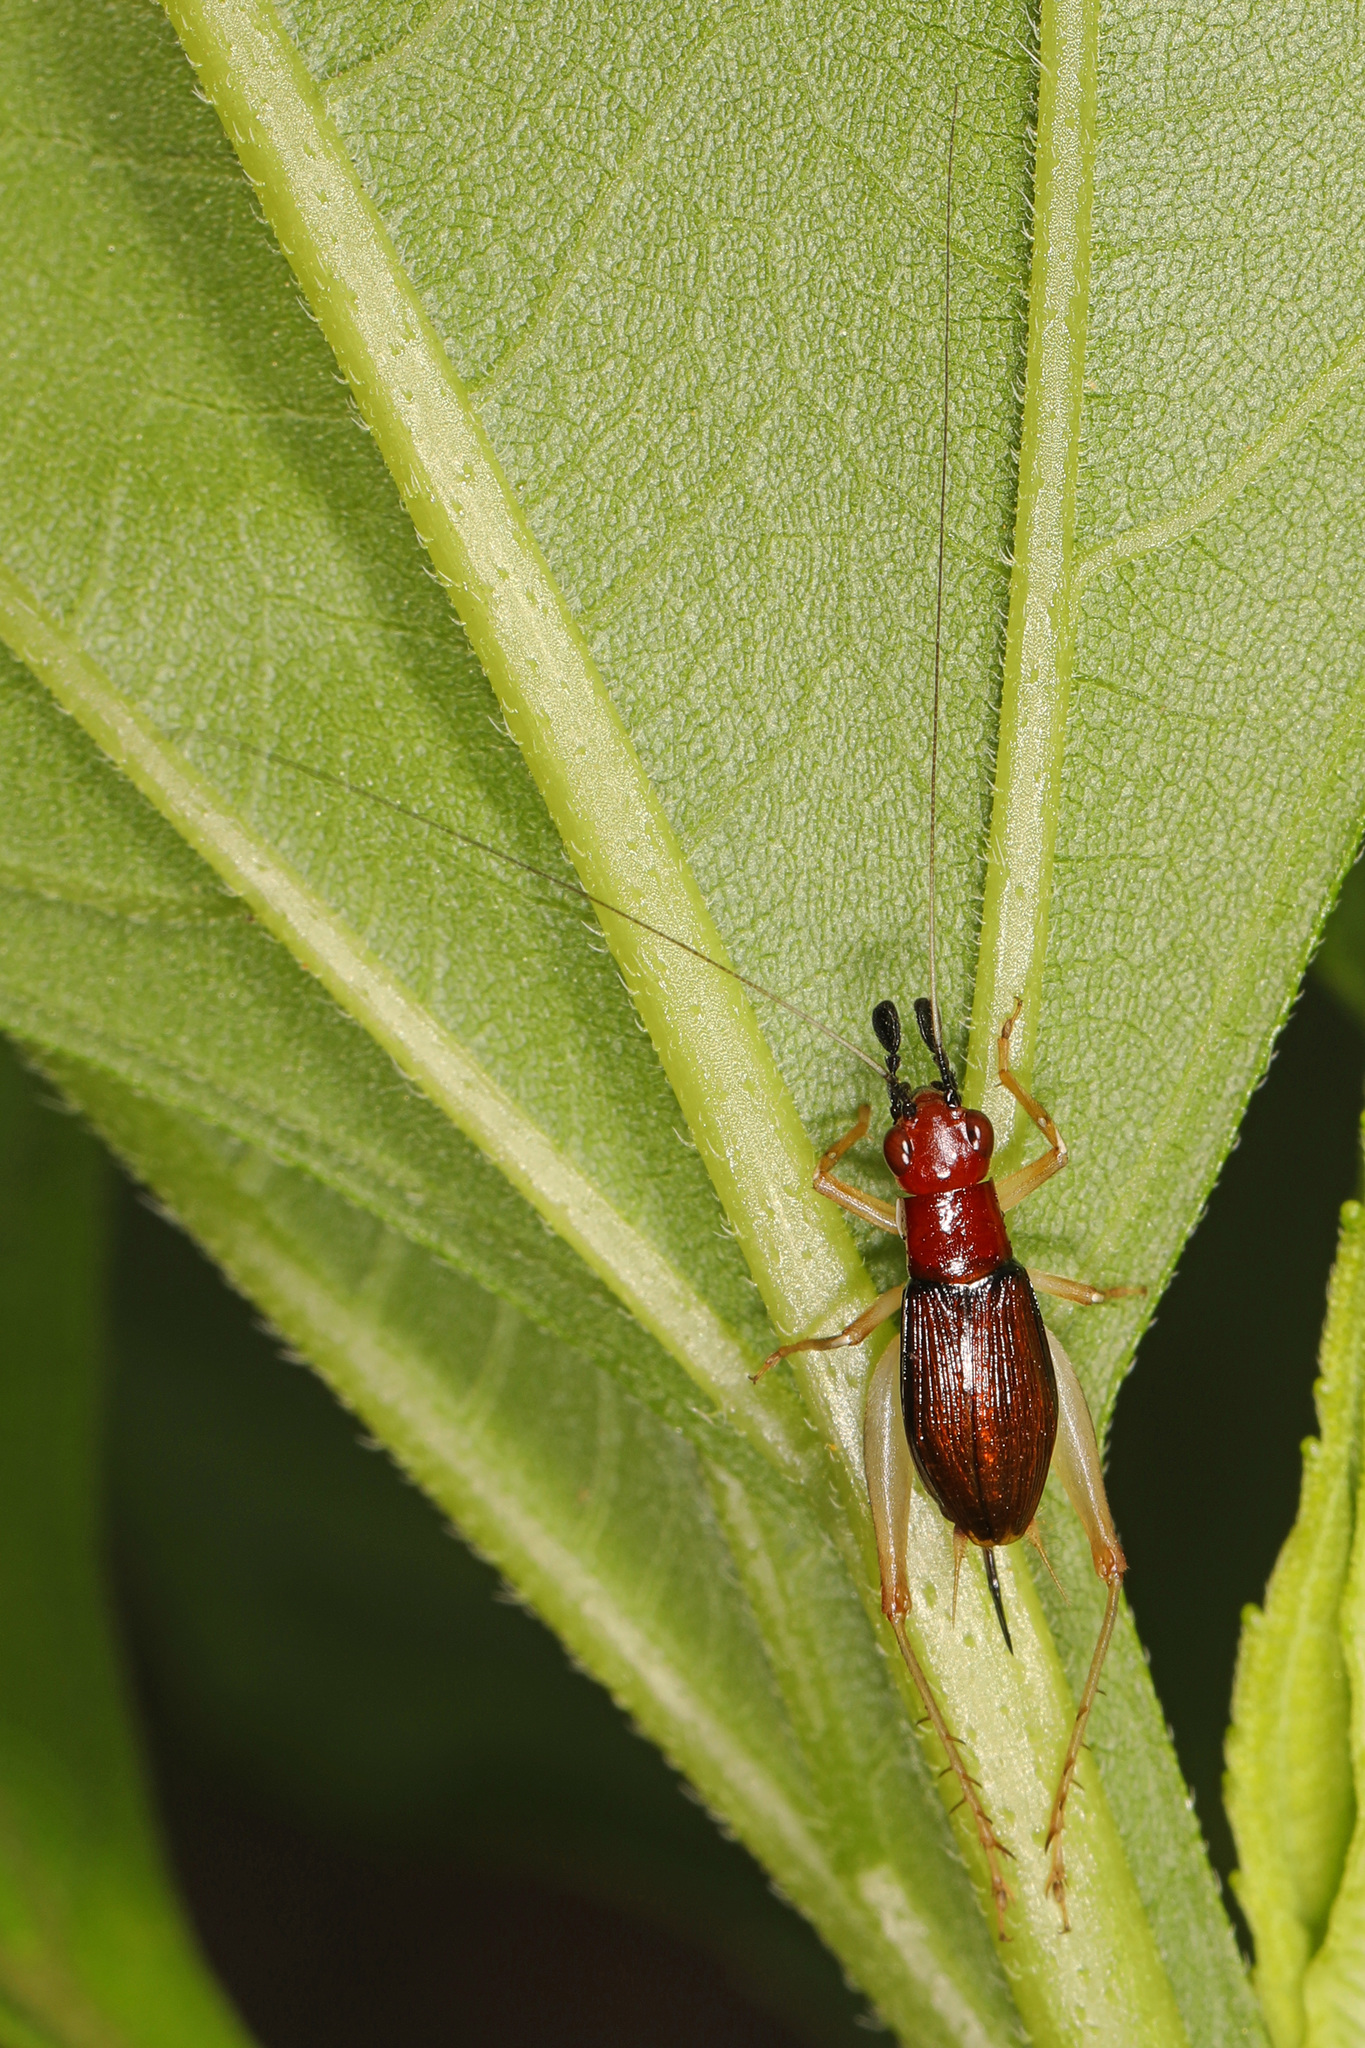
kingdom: Animalia
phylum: Arthropoda
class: Insecta
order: Orthoptera
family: Trigonidiidae
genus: Phyllopalpus
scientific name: Phyllopalpus pulchellus
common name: Handsome trig
